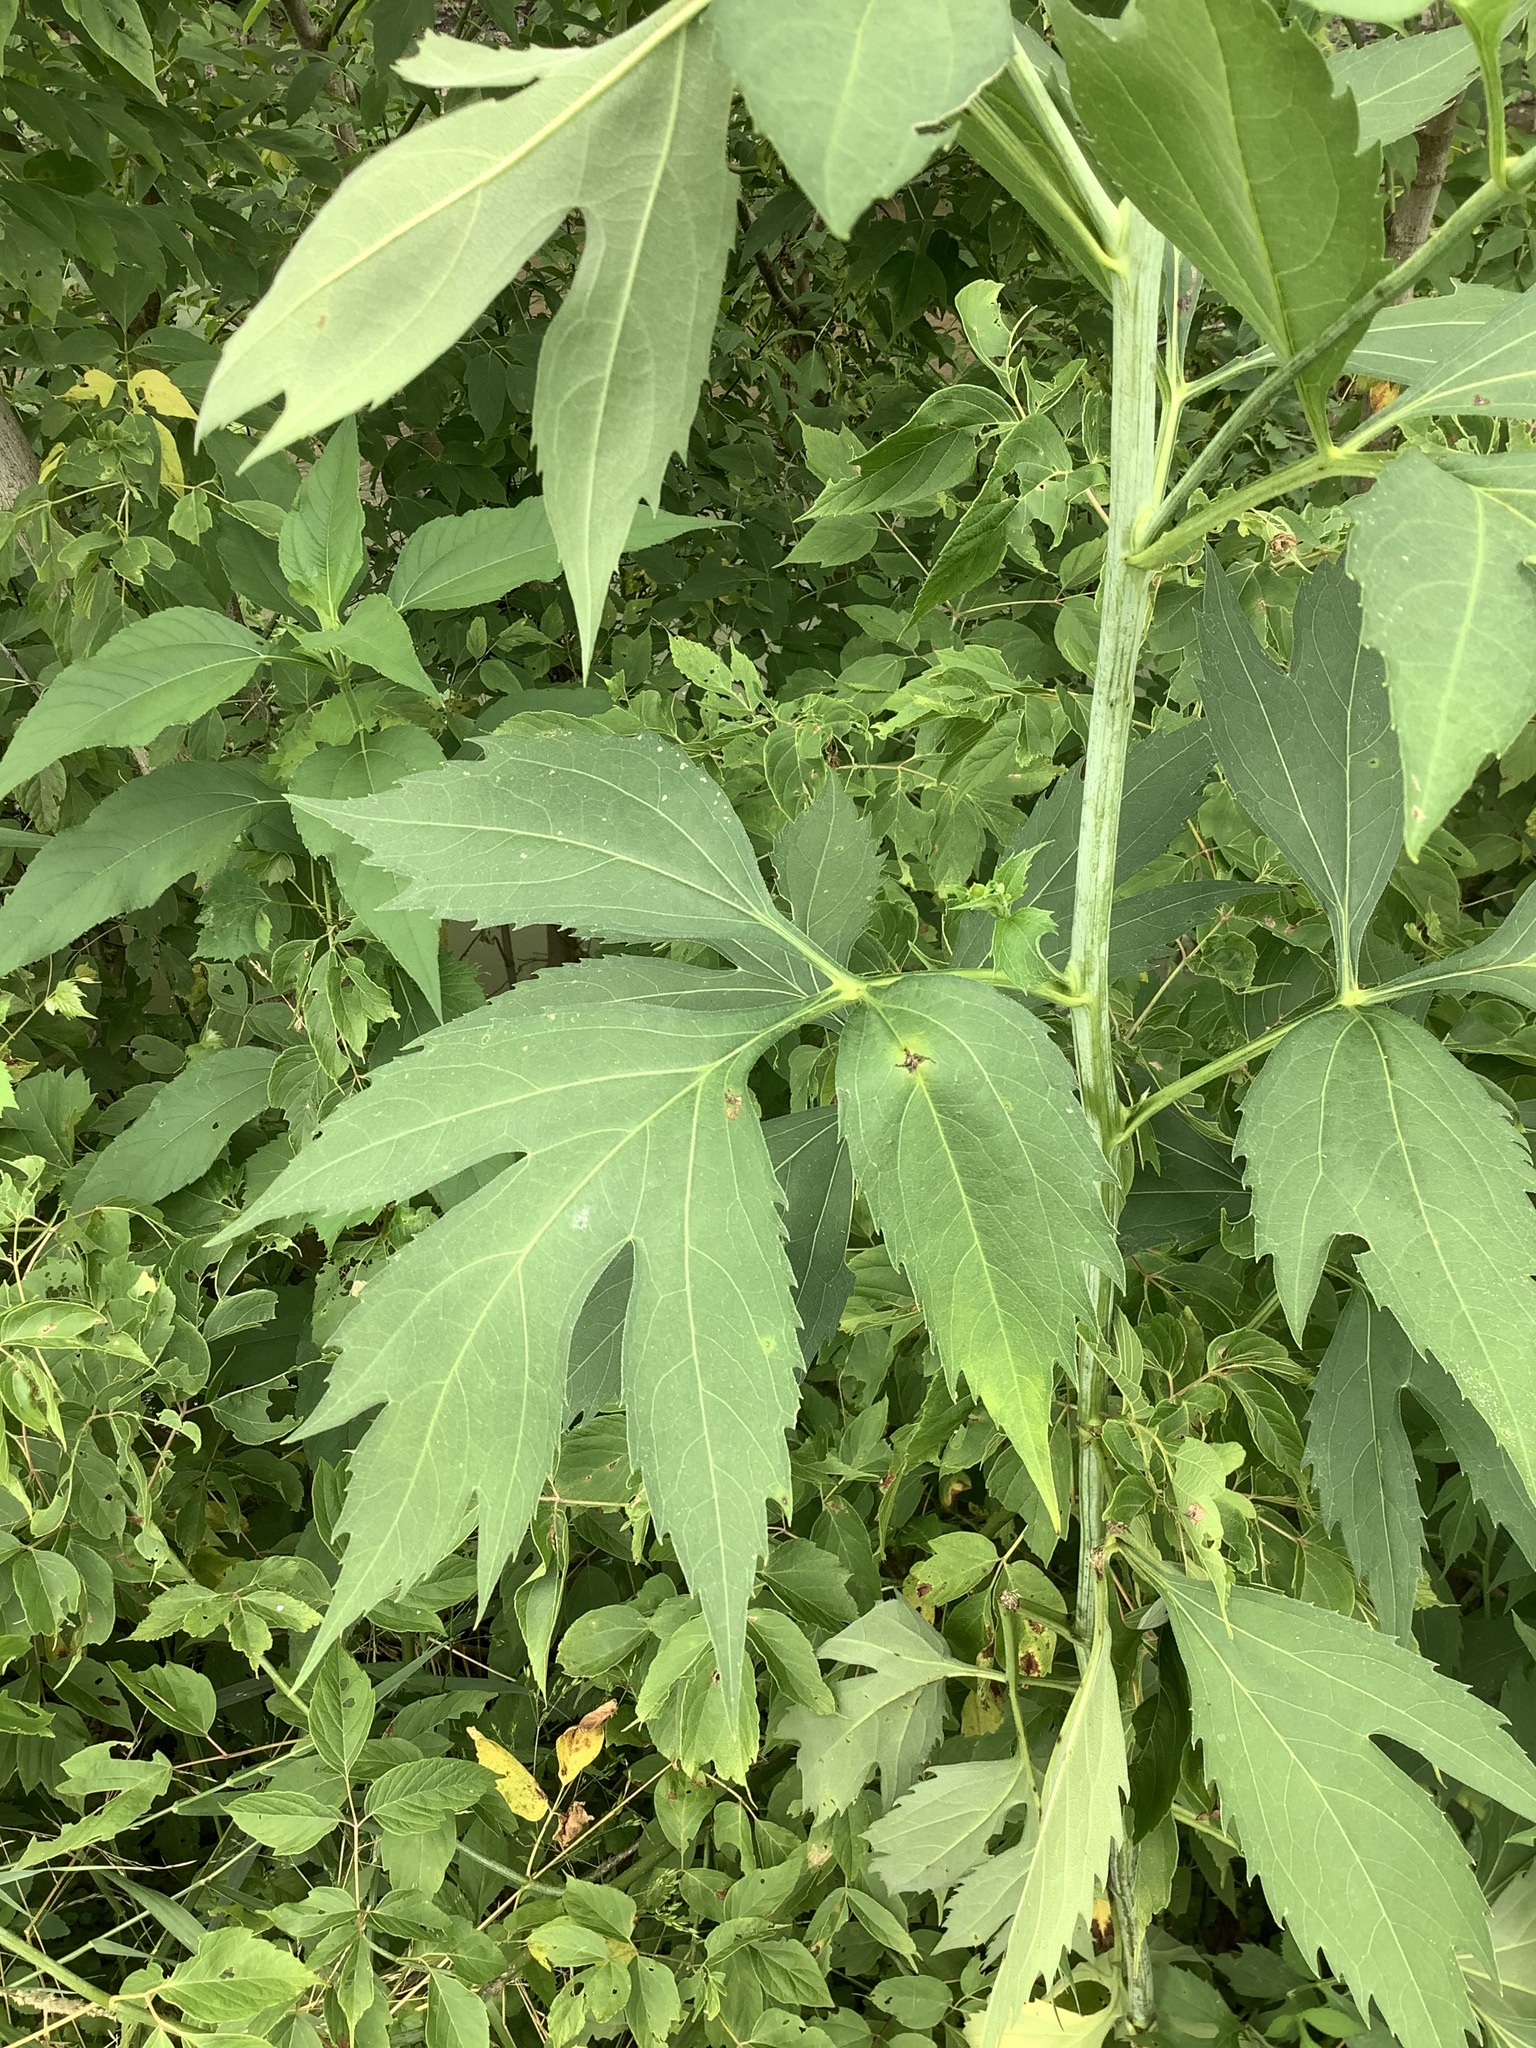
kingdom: Plantae
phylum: Tracheophyta
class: Magnoliopsida
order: Asterales
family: Asteraceae
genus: Rudbeckia
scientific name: Rudbeckia laciniata
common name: Coneflower
